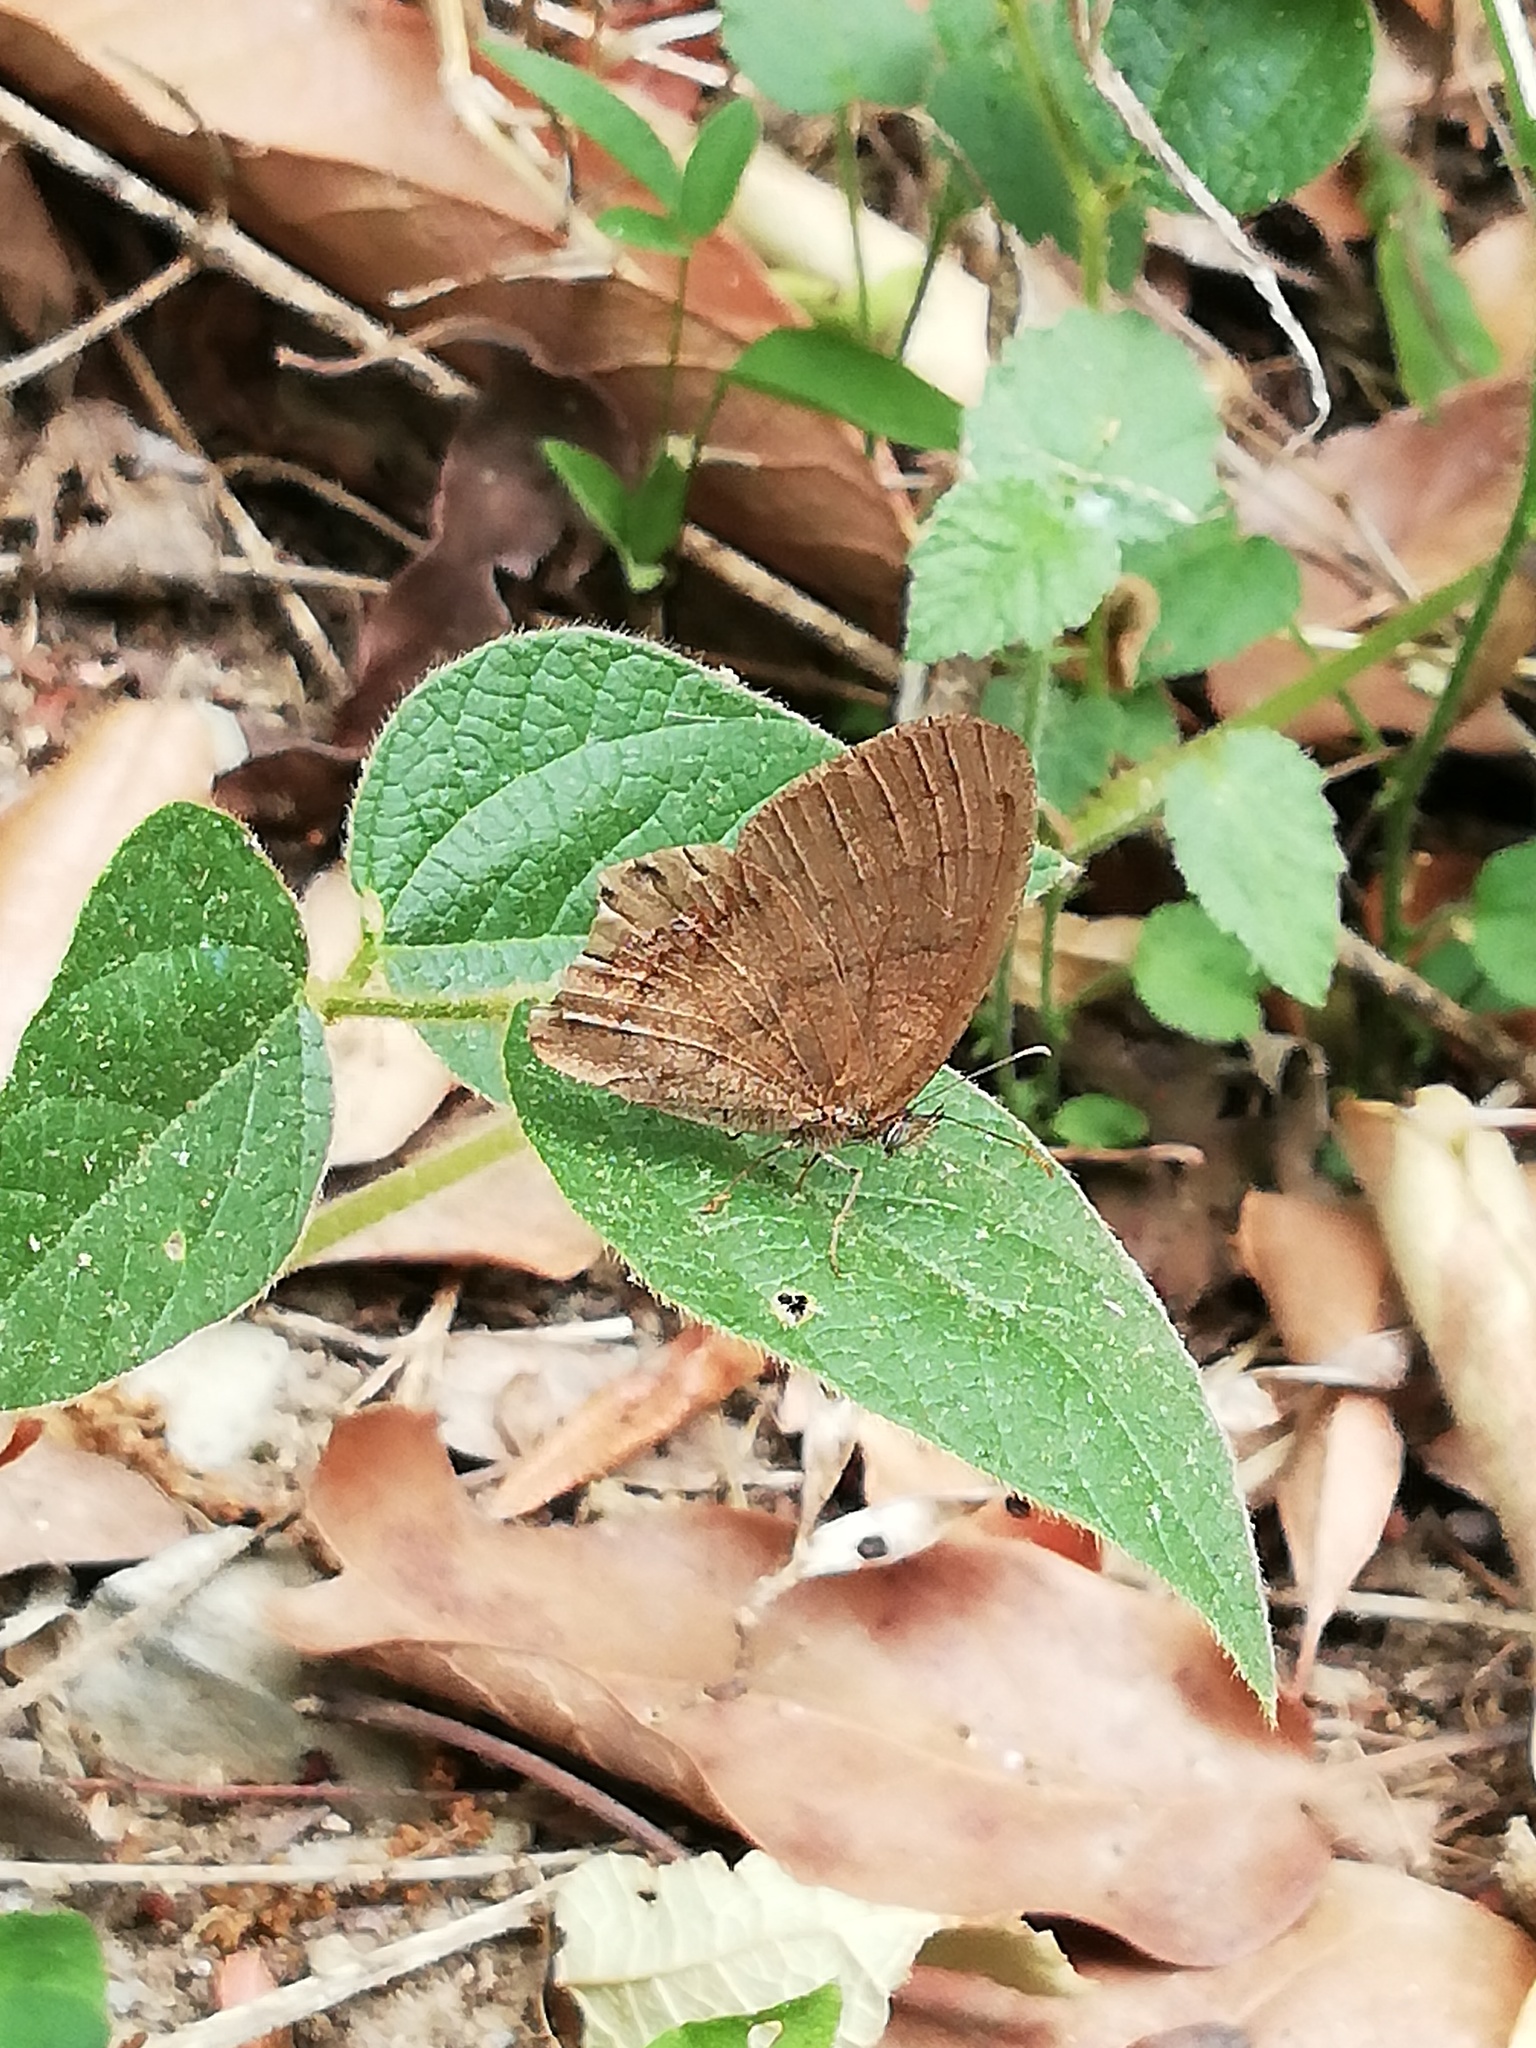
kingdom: Animalia
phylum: Arthropoda
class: Insecta
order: Lepidoptera
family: Nymphalidae
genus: Euptychia
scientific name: Euptychia cornelius
